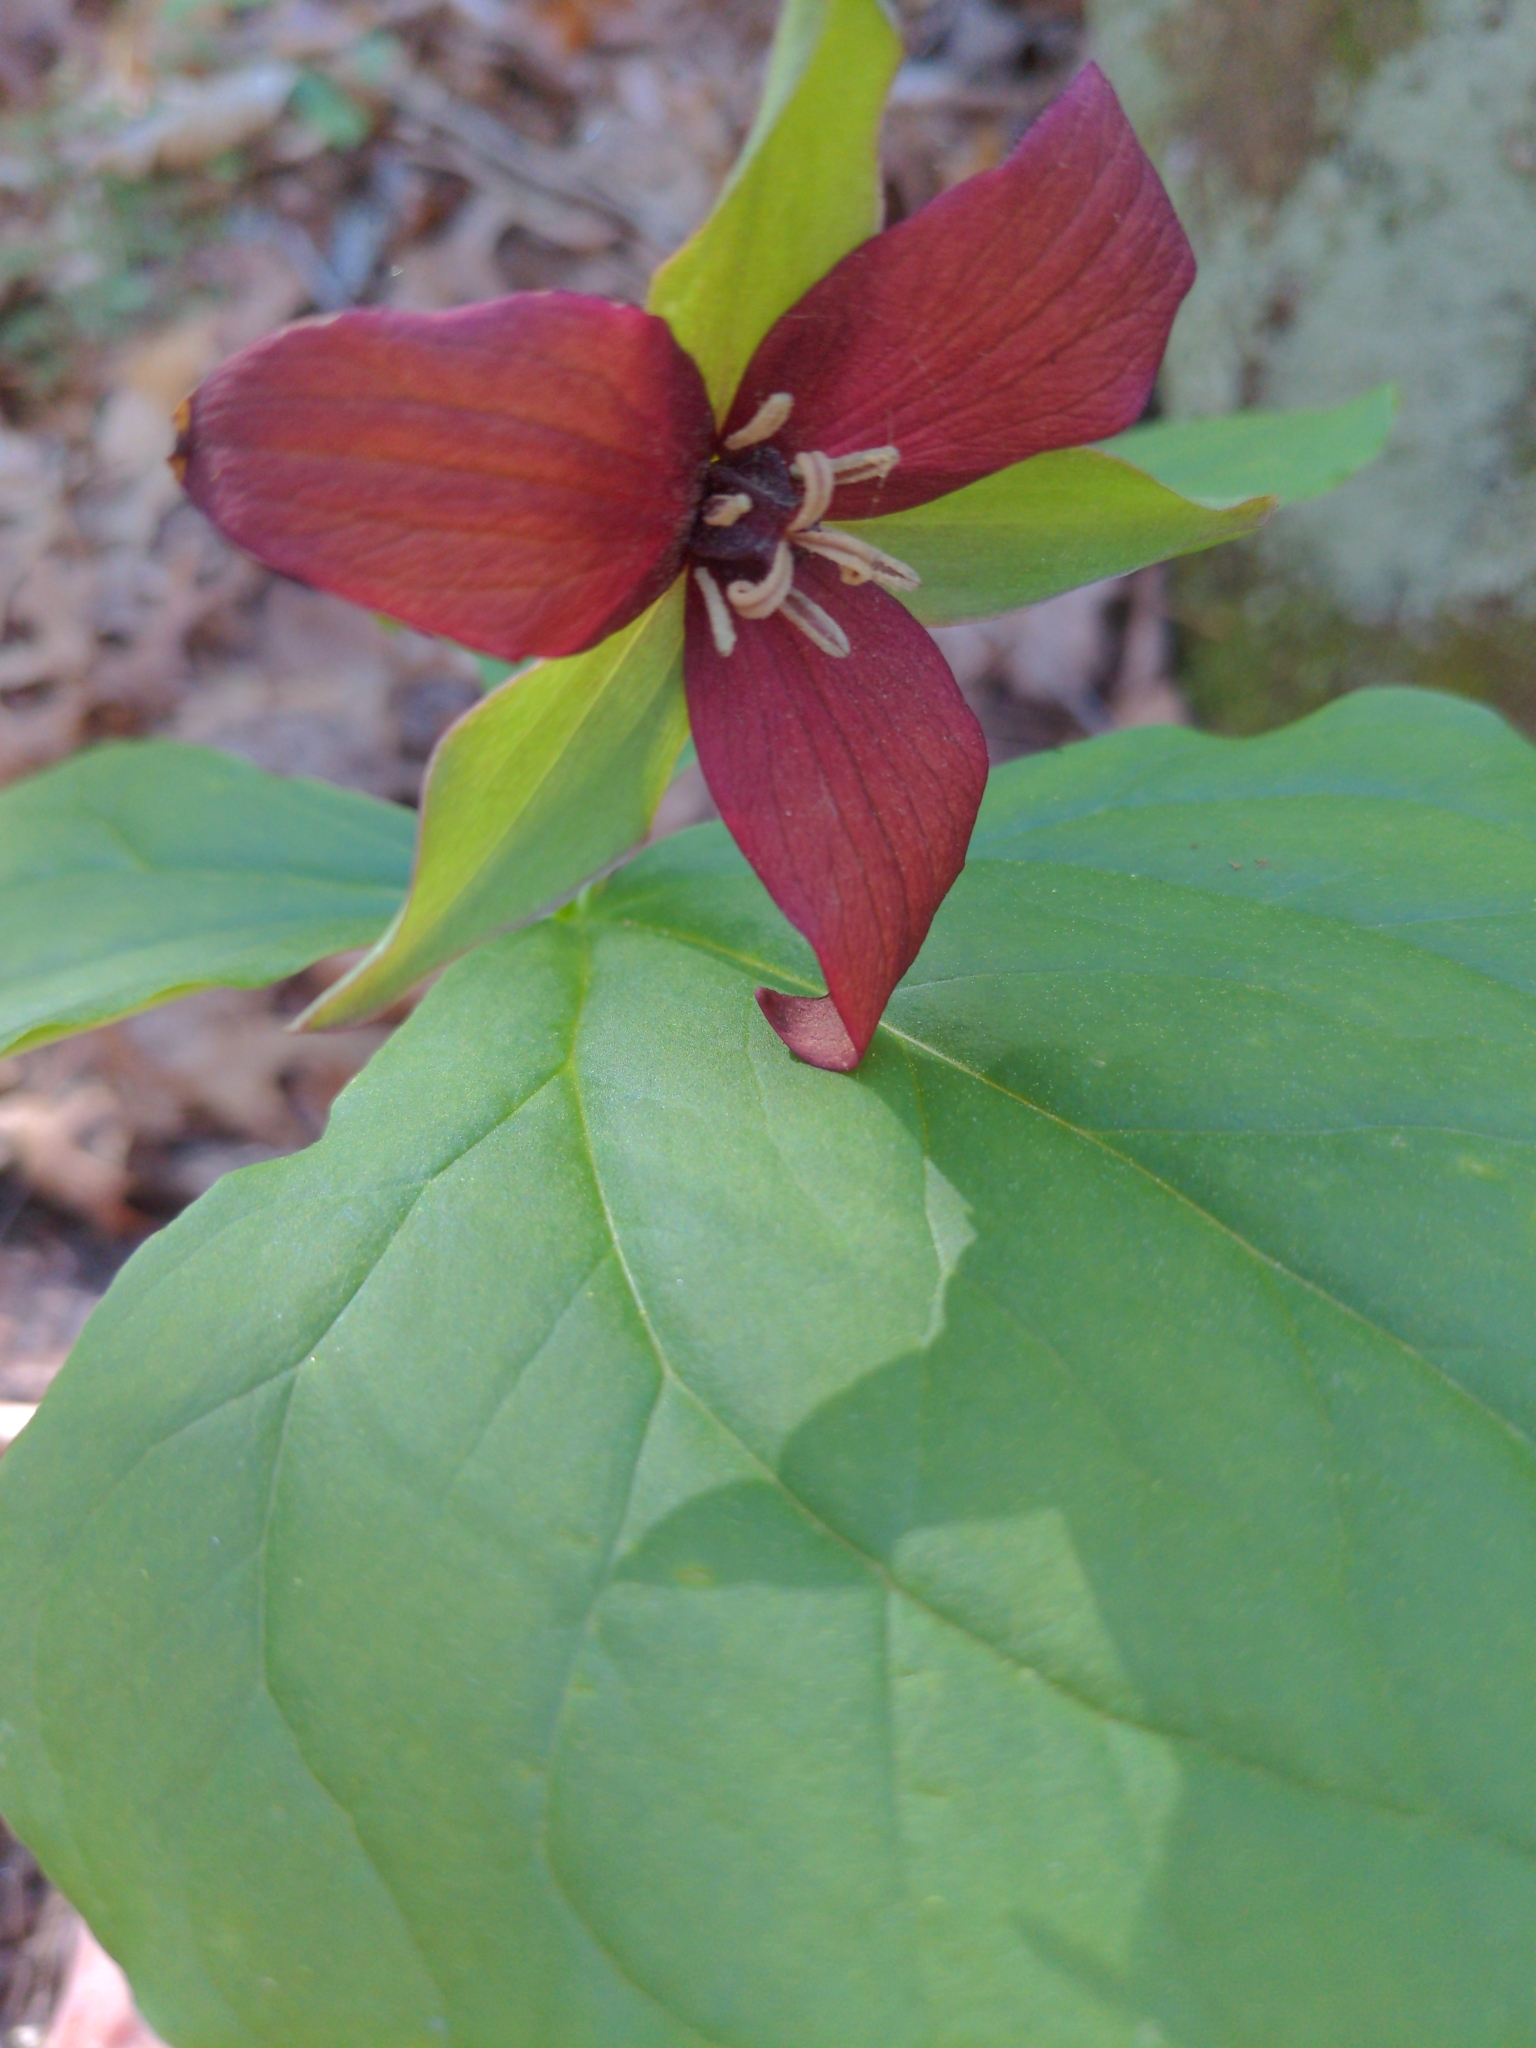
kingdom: Plantae
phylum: Tracheophyta
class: Liliopsida
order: Liliales
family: Melanthiaceae
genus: Trillium
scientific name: Trillium erectum
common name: Purple trillium
